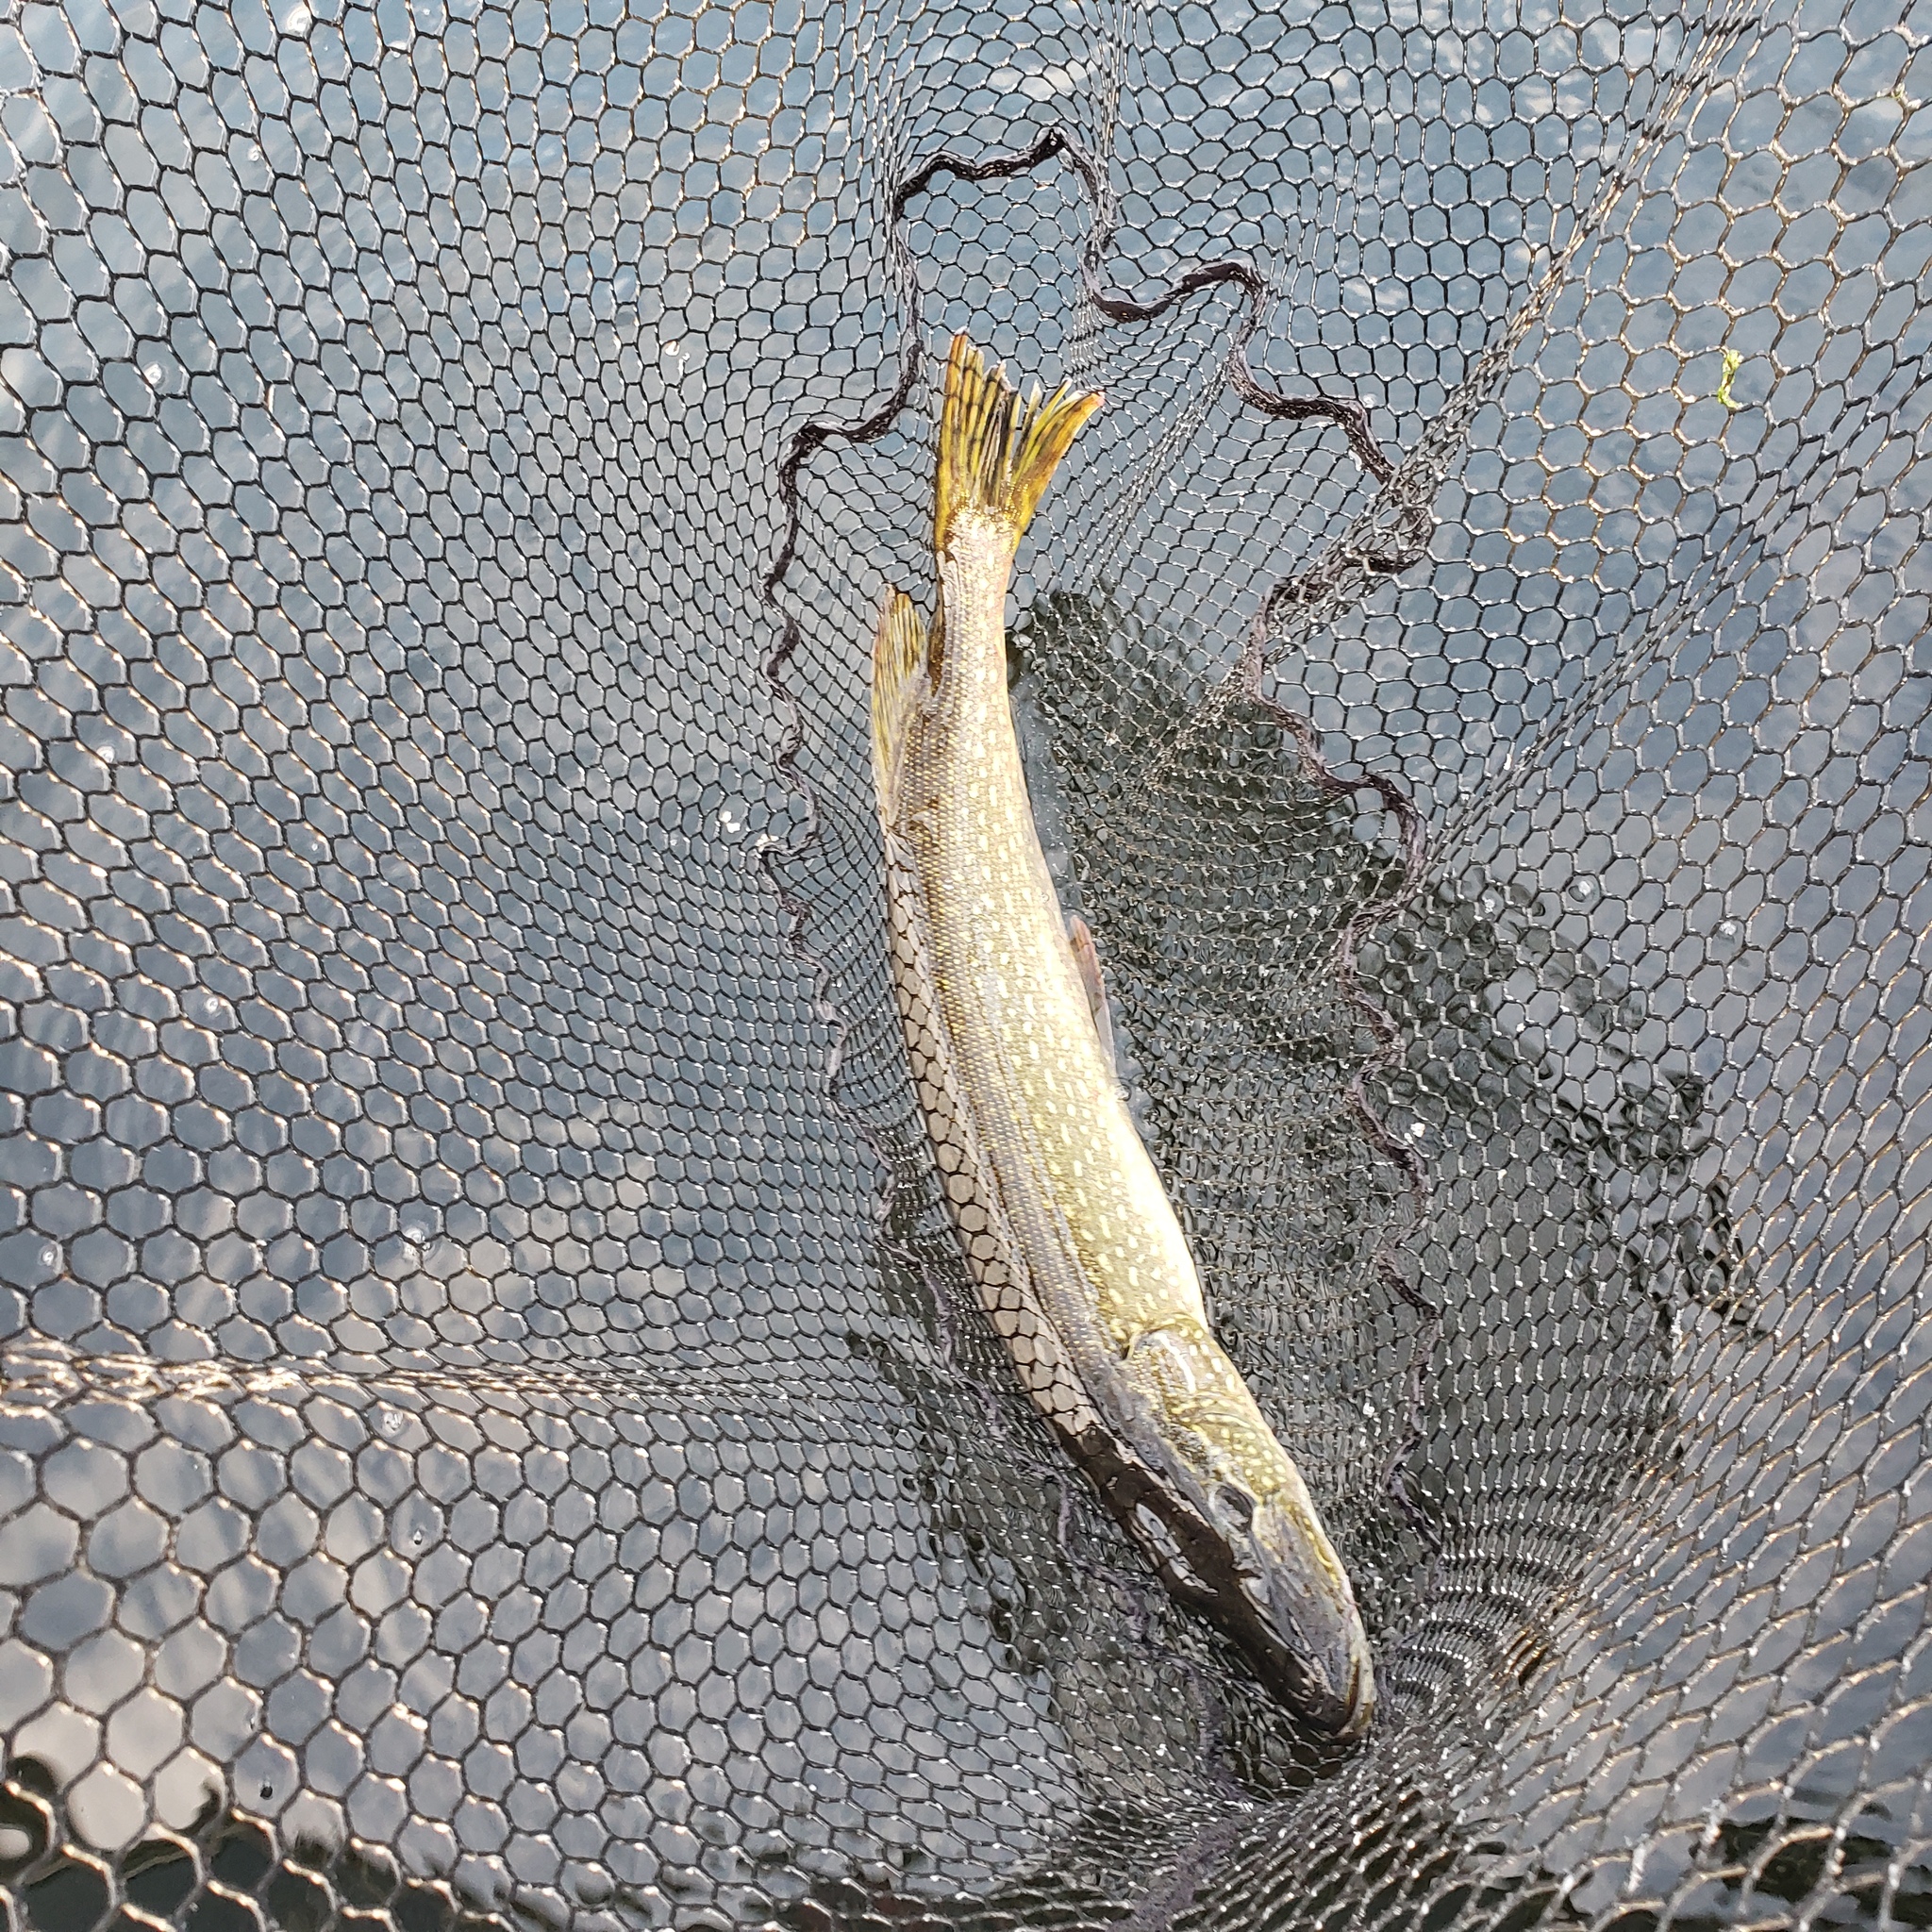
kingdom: Animalia
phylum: Chordata
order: Esociformes
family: Esocidae
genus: Esox
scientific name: Esox lucius
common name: Northern pike
